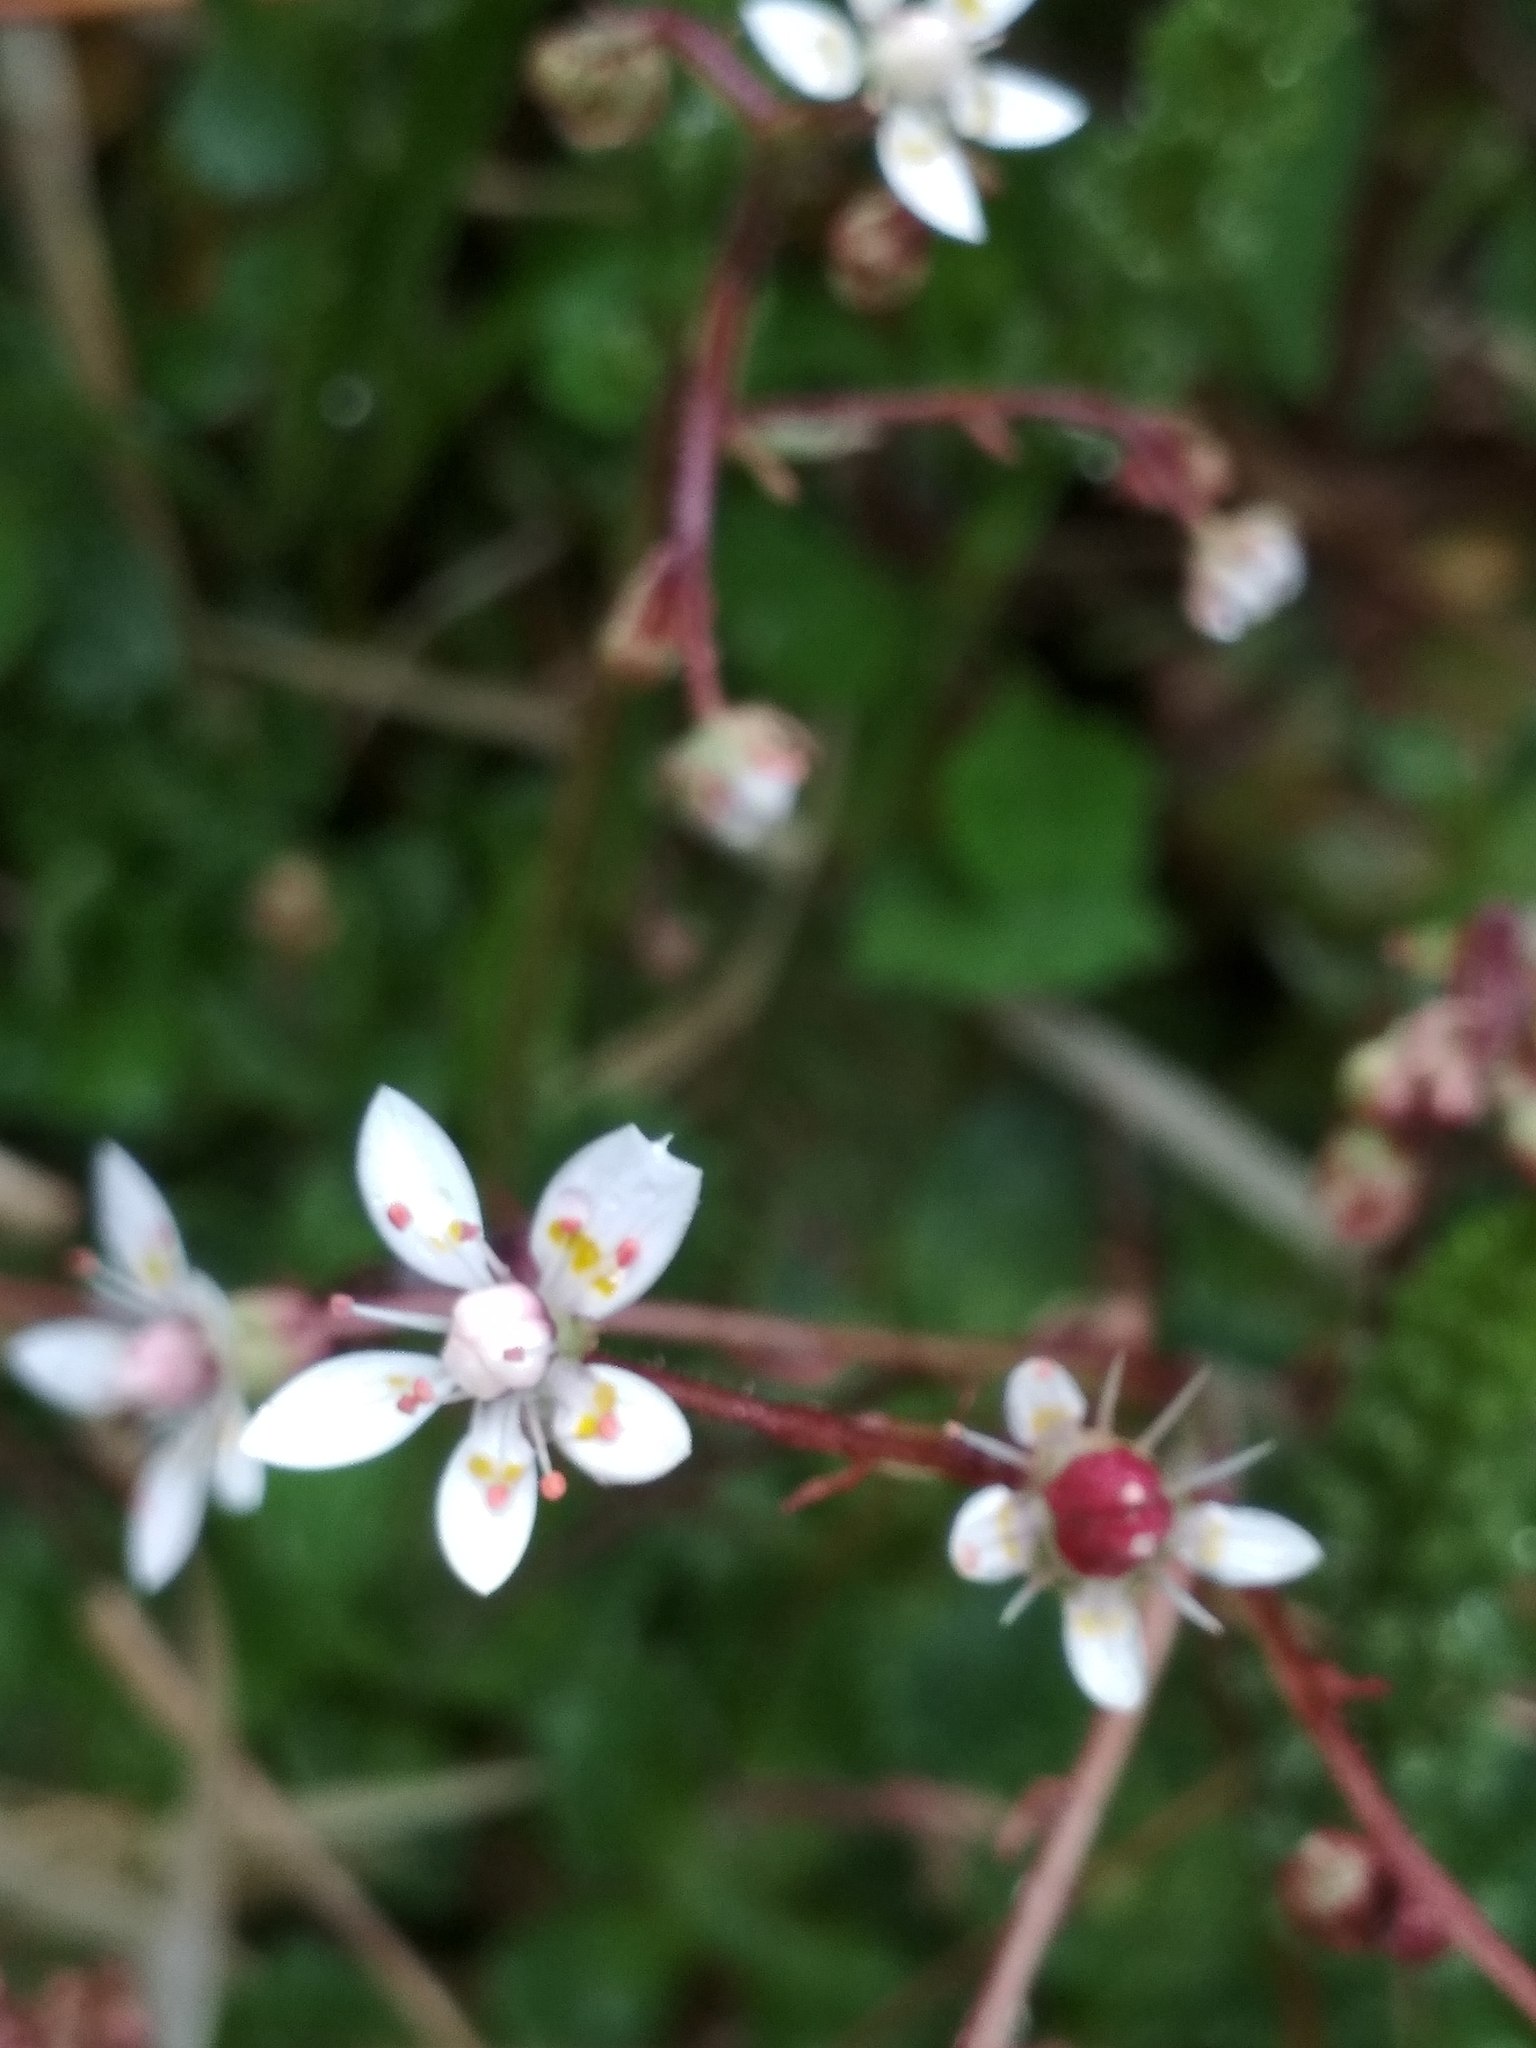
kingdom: Plantae
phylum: Tracheophyta
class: Magnoliopsida
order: Saxifragales
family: Saxifragaceae
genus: Micranthes
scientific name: Micranthes stellaris
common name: Starry saxifrage
